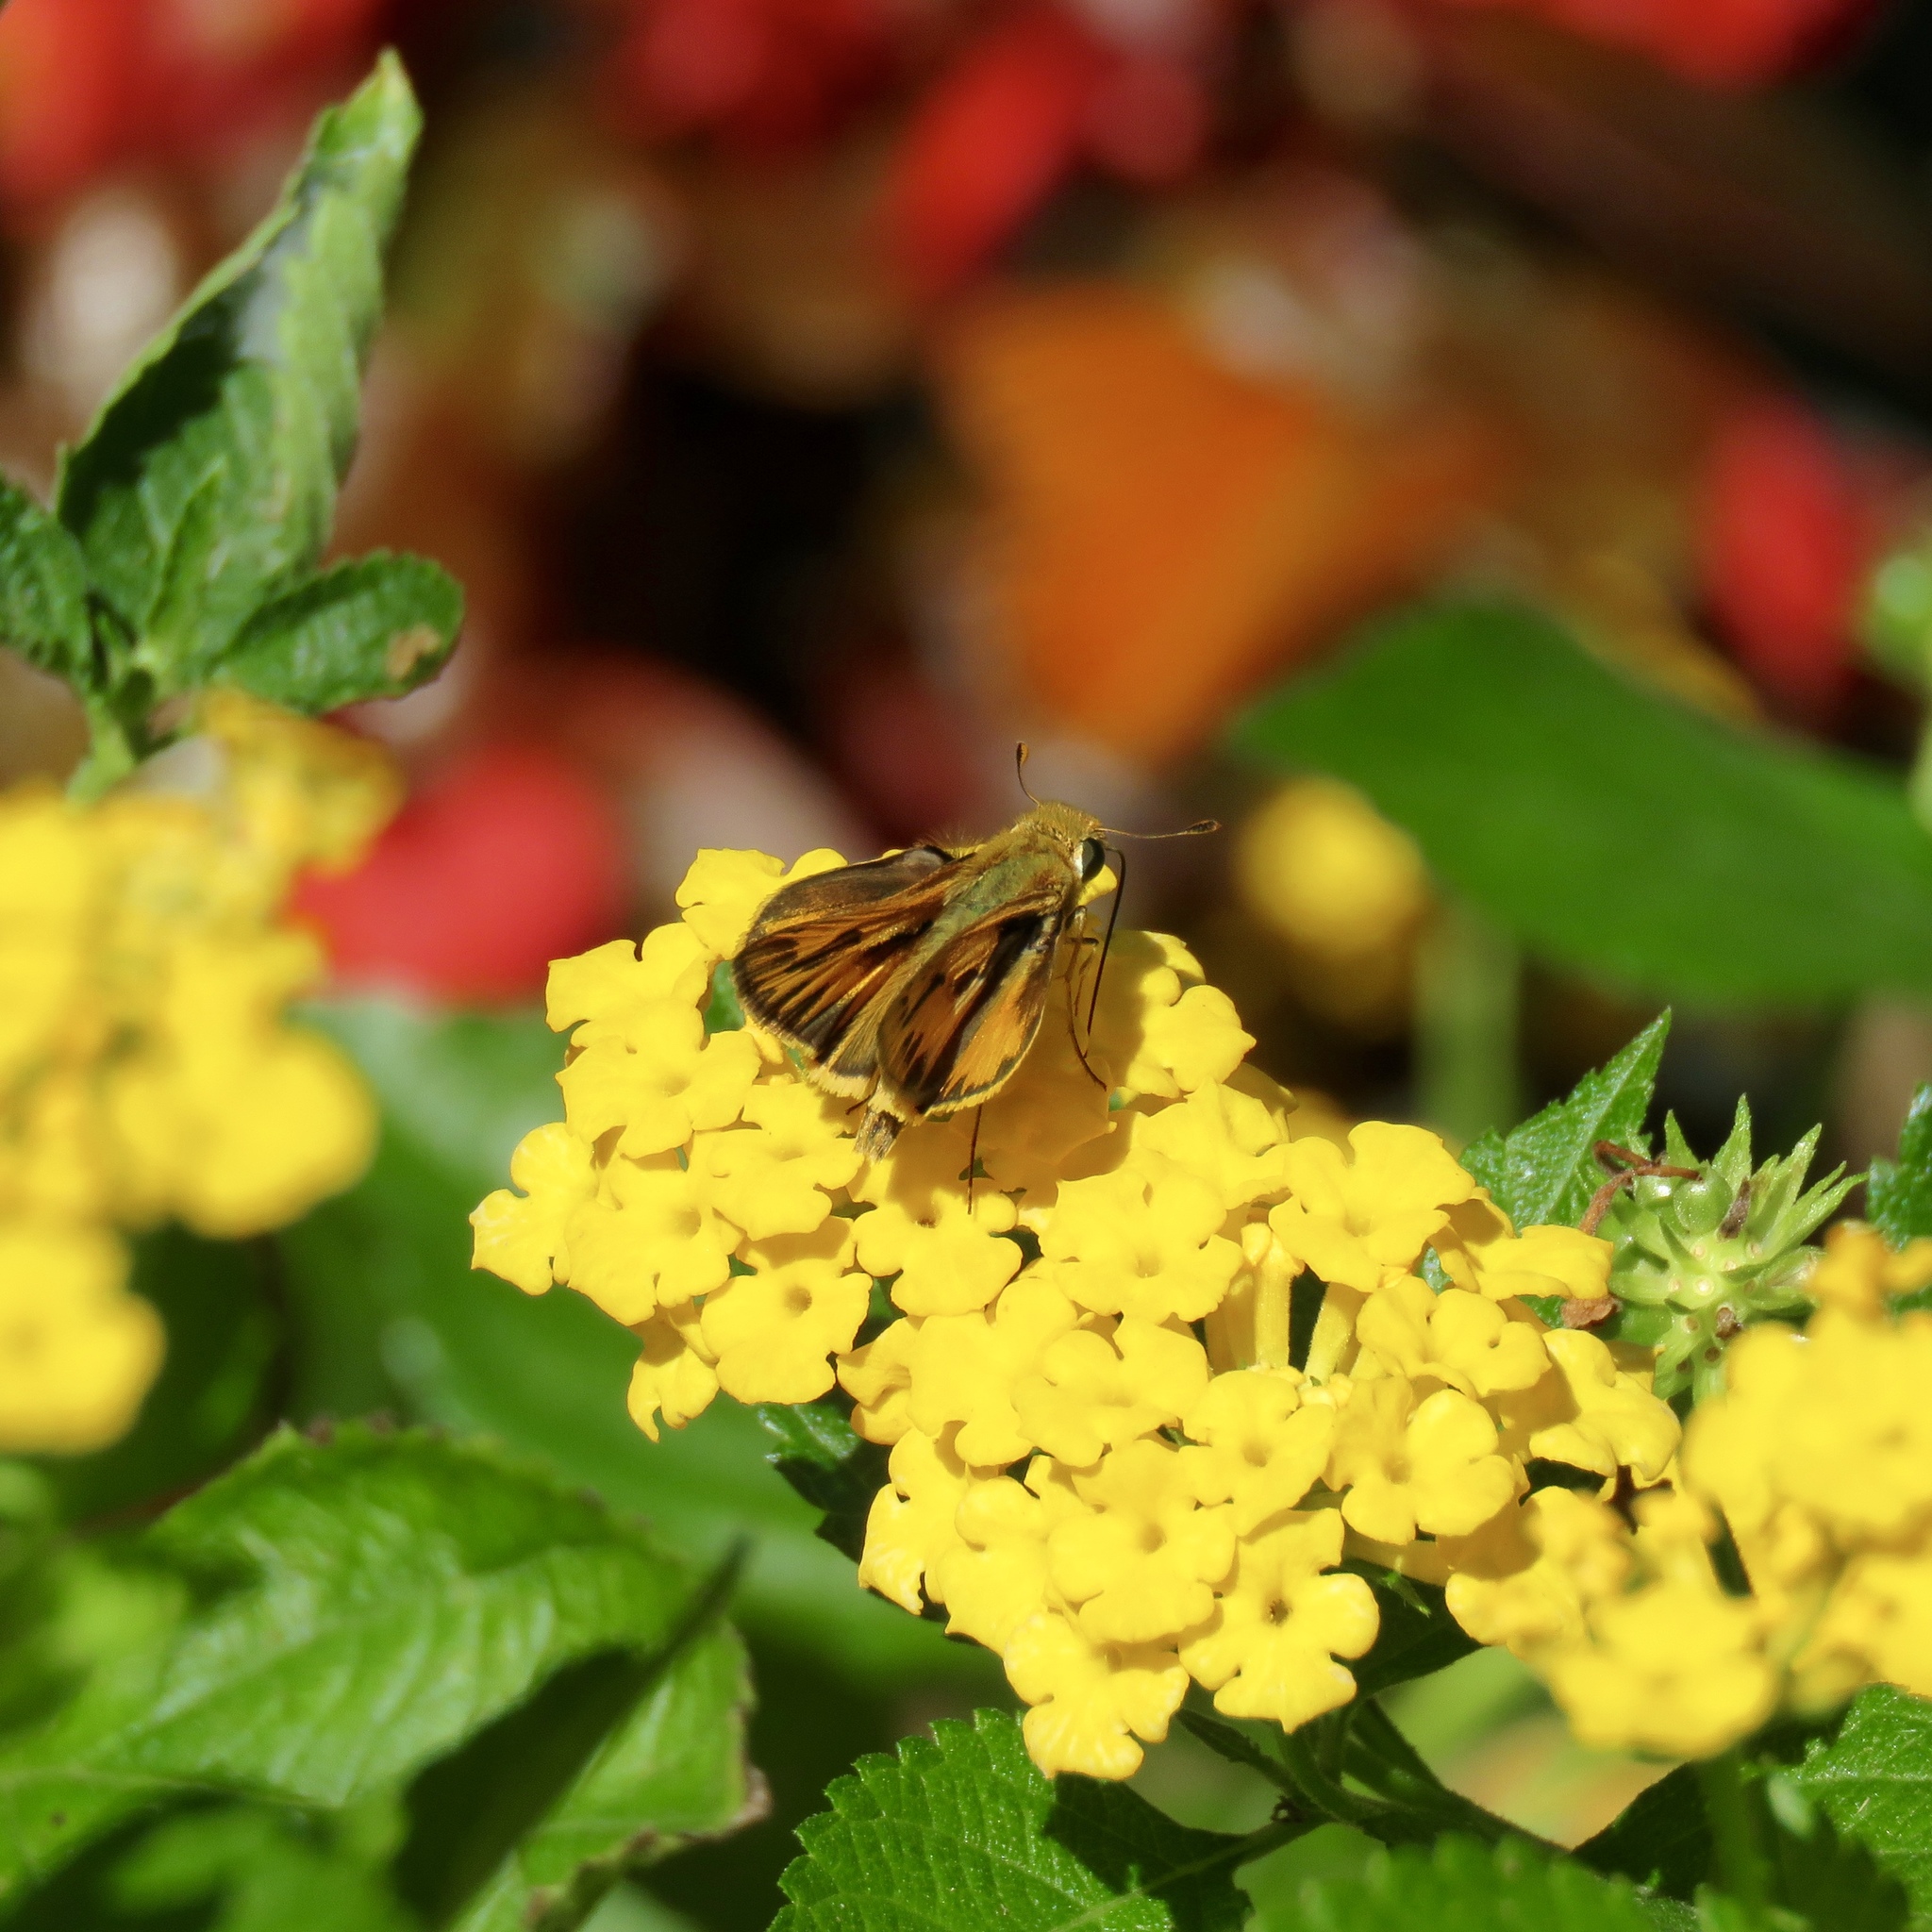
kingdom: Animalia
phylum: Arthropoda
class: Insecta
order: Lepidoptera
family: Hesperiidae
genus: Hylephila
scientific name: Hylephila phyleus
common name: Fiery skipper
